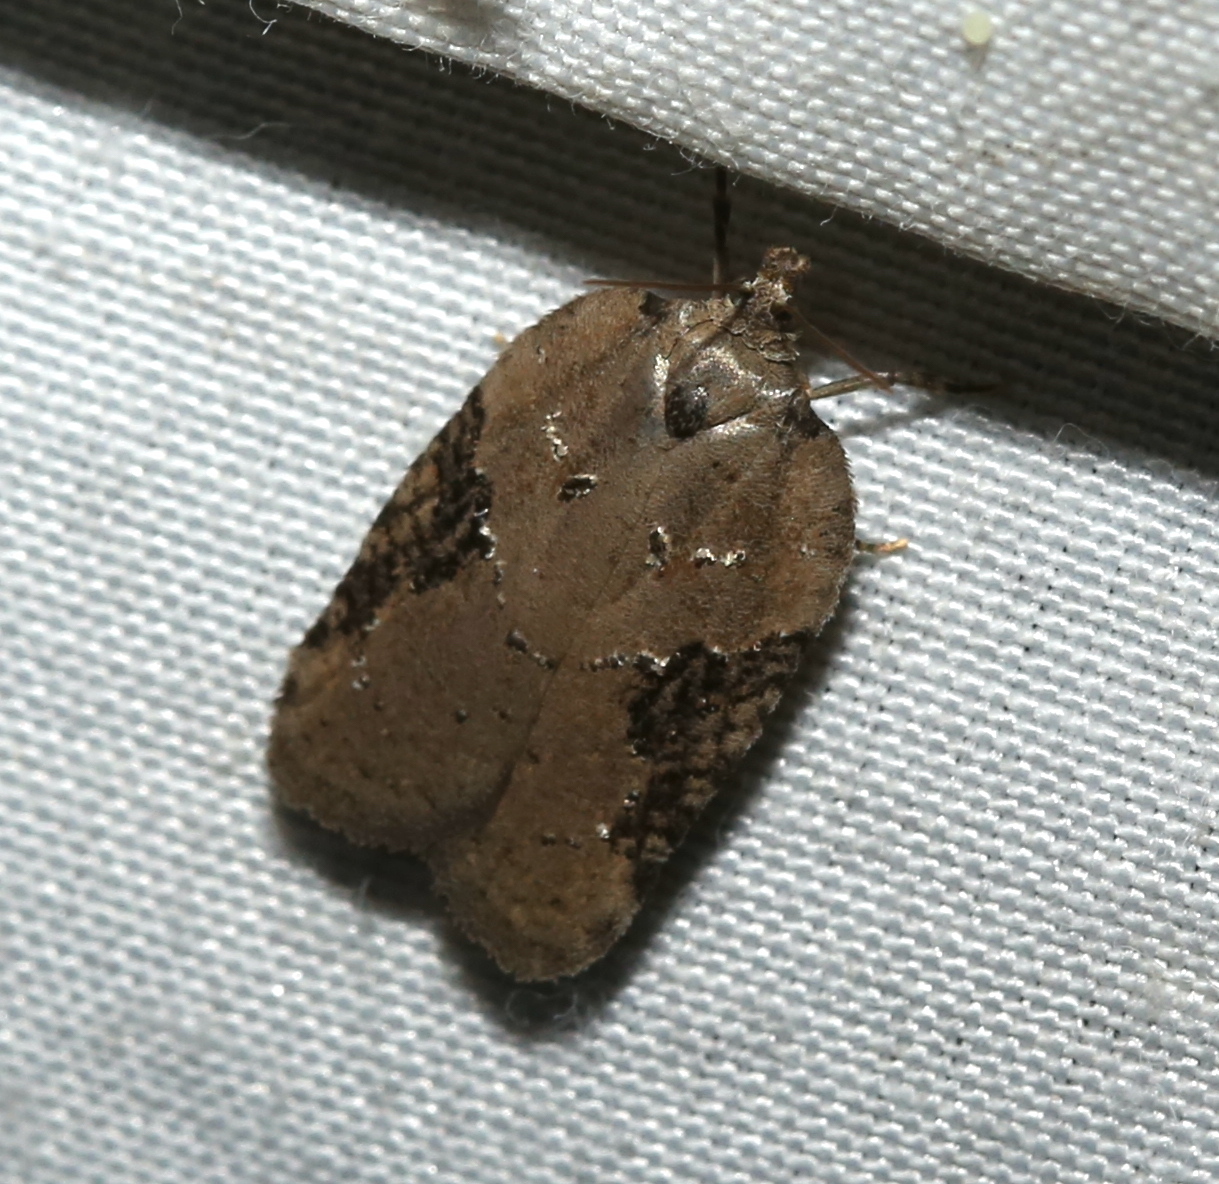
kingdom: Animalia
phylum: Arthropoda
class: Insecta
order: Lepidoptera
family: Tortricidae
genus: Acleris
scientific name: Acleris chalybeana
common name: Lesser maple leafroller
